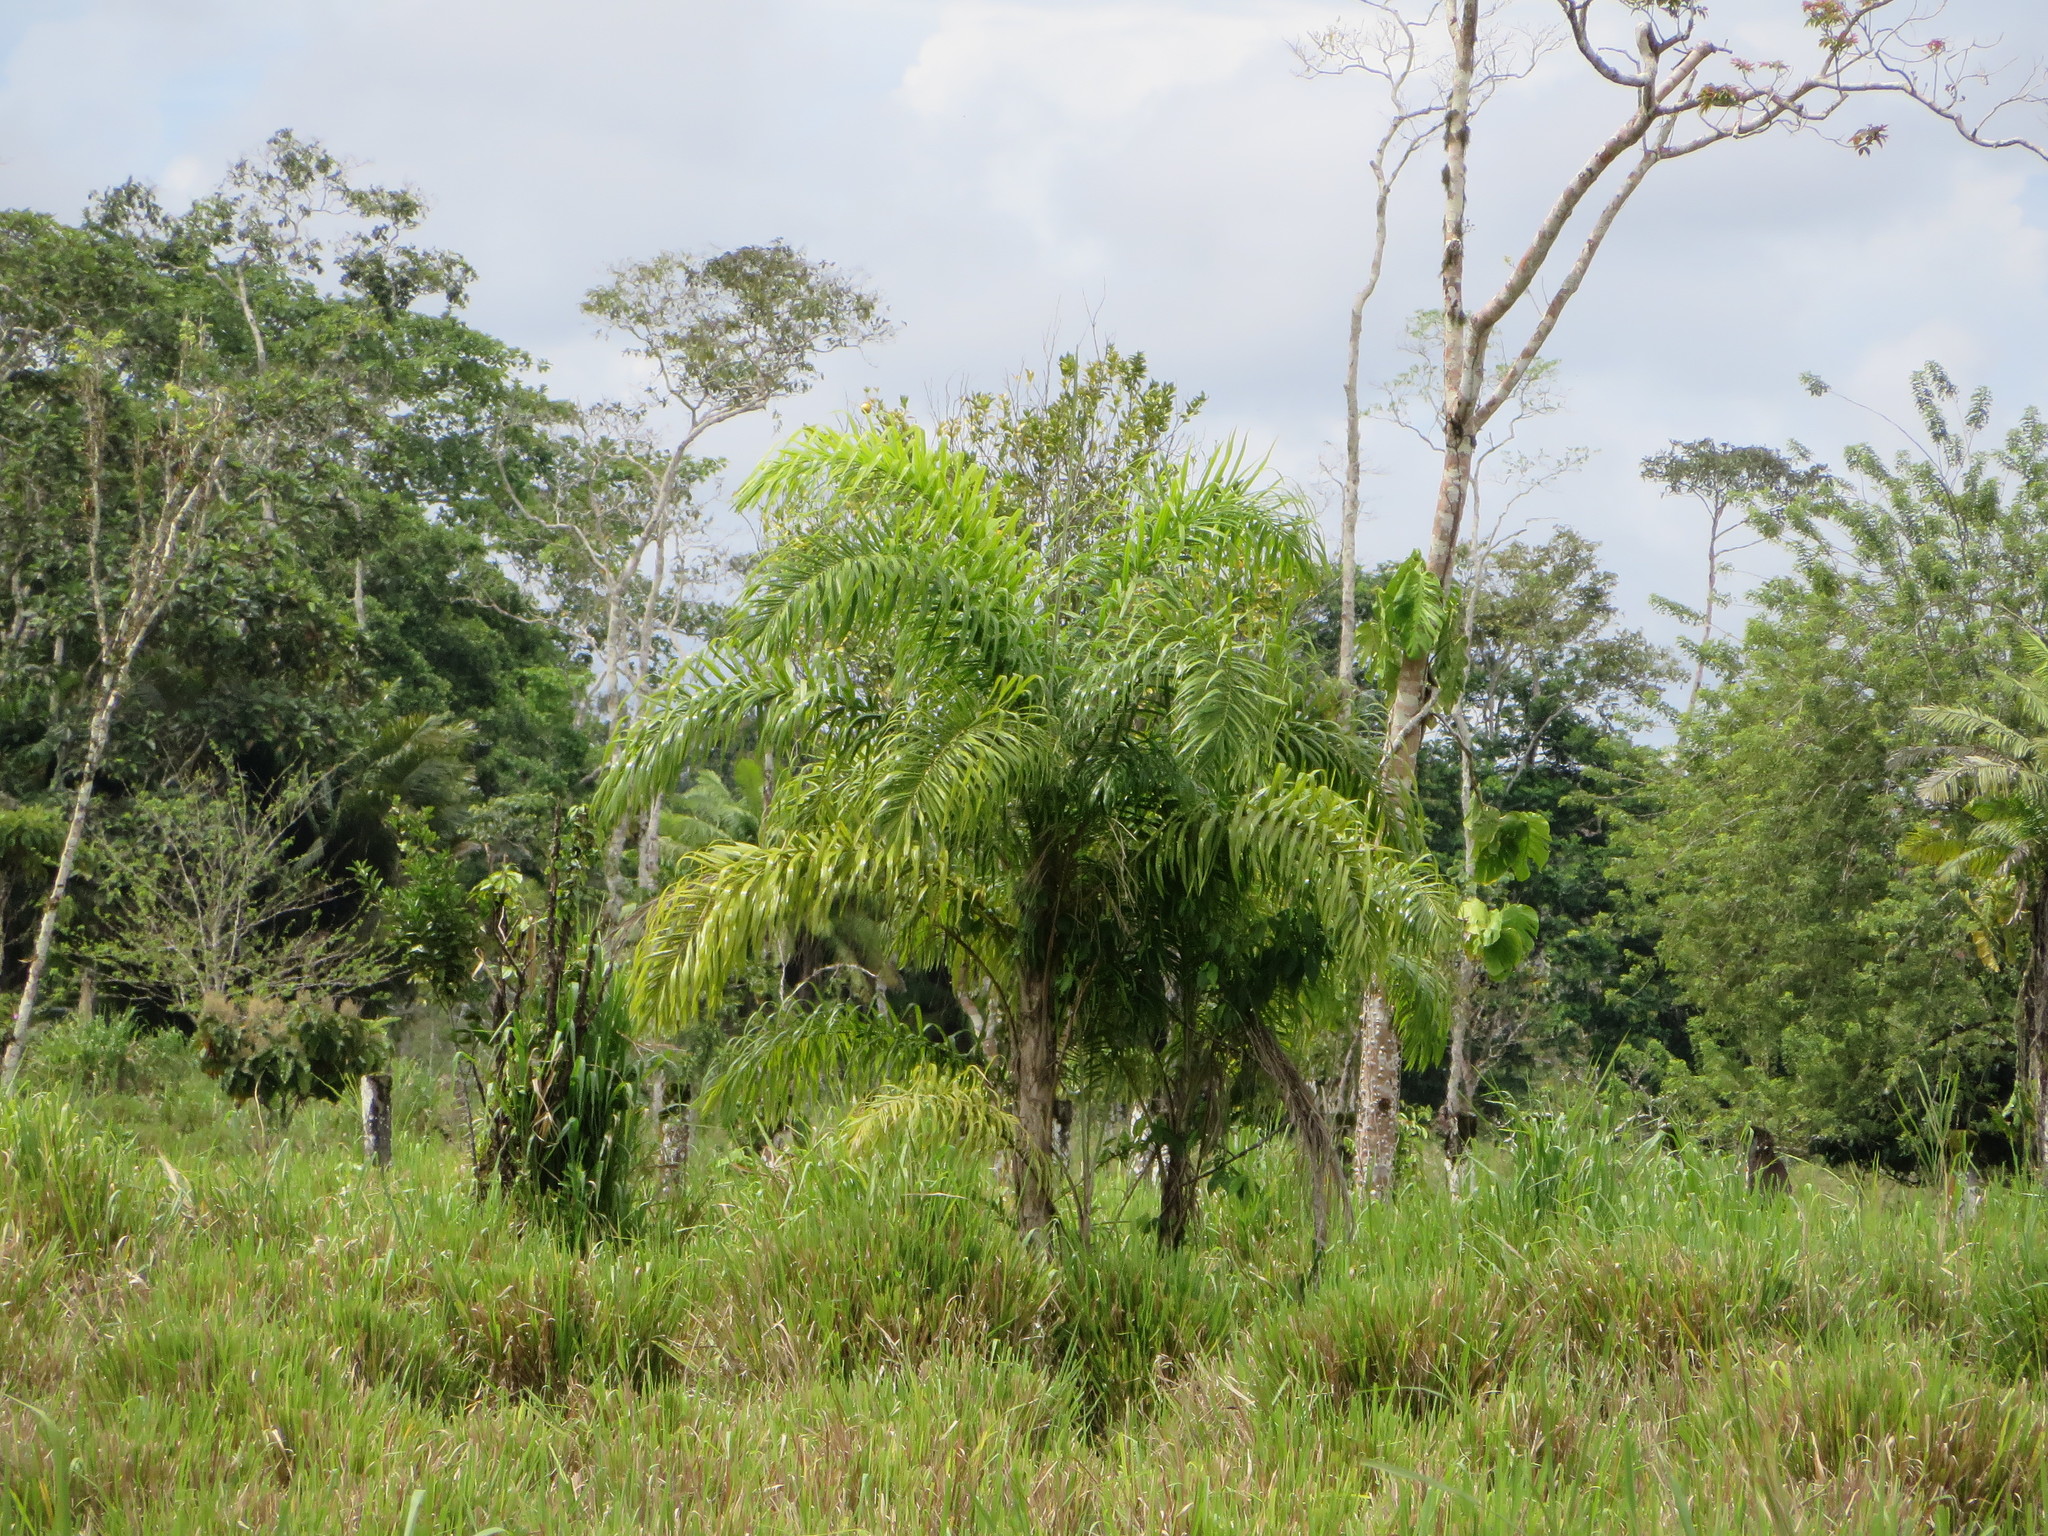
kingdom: Plantae
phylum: Tracheophyta
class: Liliopsida
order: Arecales
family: Arecaceae
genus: Bactris
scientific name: Bactris gasipaes
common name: Peach palm
